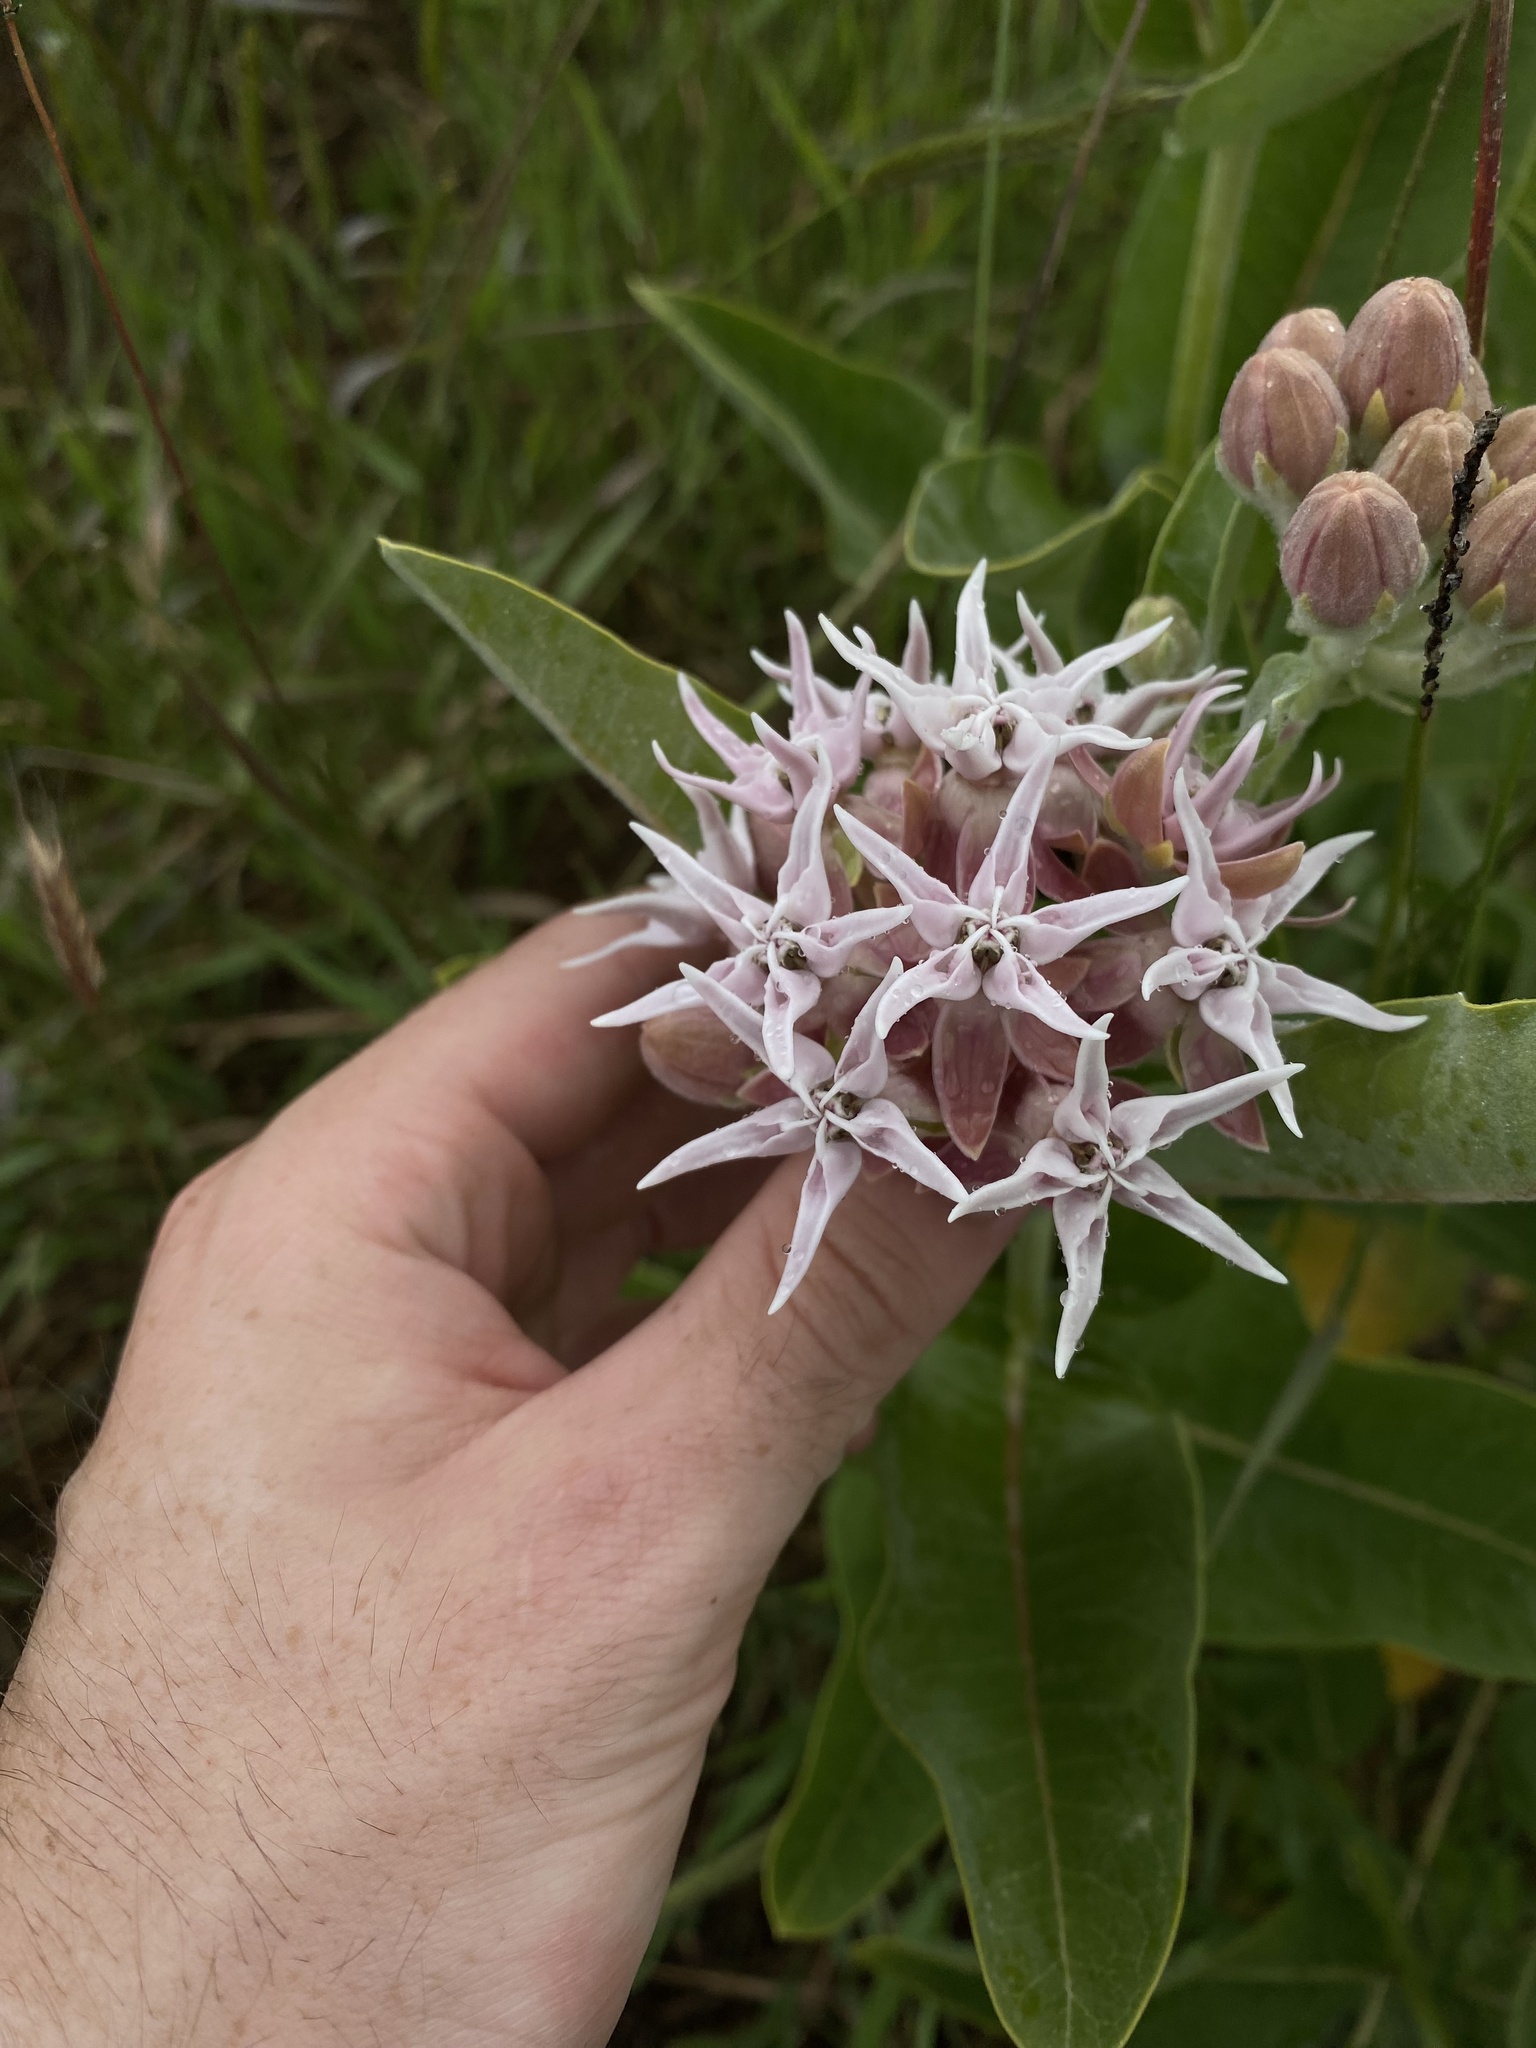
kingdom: Plantae
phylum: Tracheophyta
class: Magnoliopsida
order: Gentianales
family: Apocynaceae
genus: Asclepias
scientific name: Asclepias speciosa
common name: Showy milkweed
